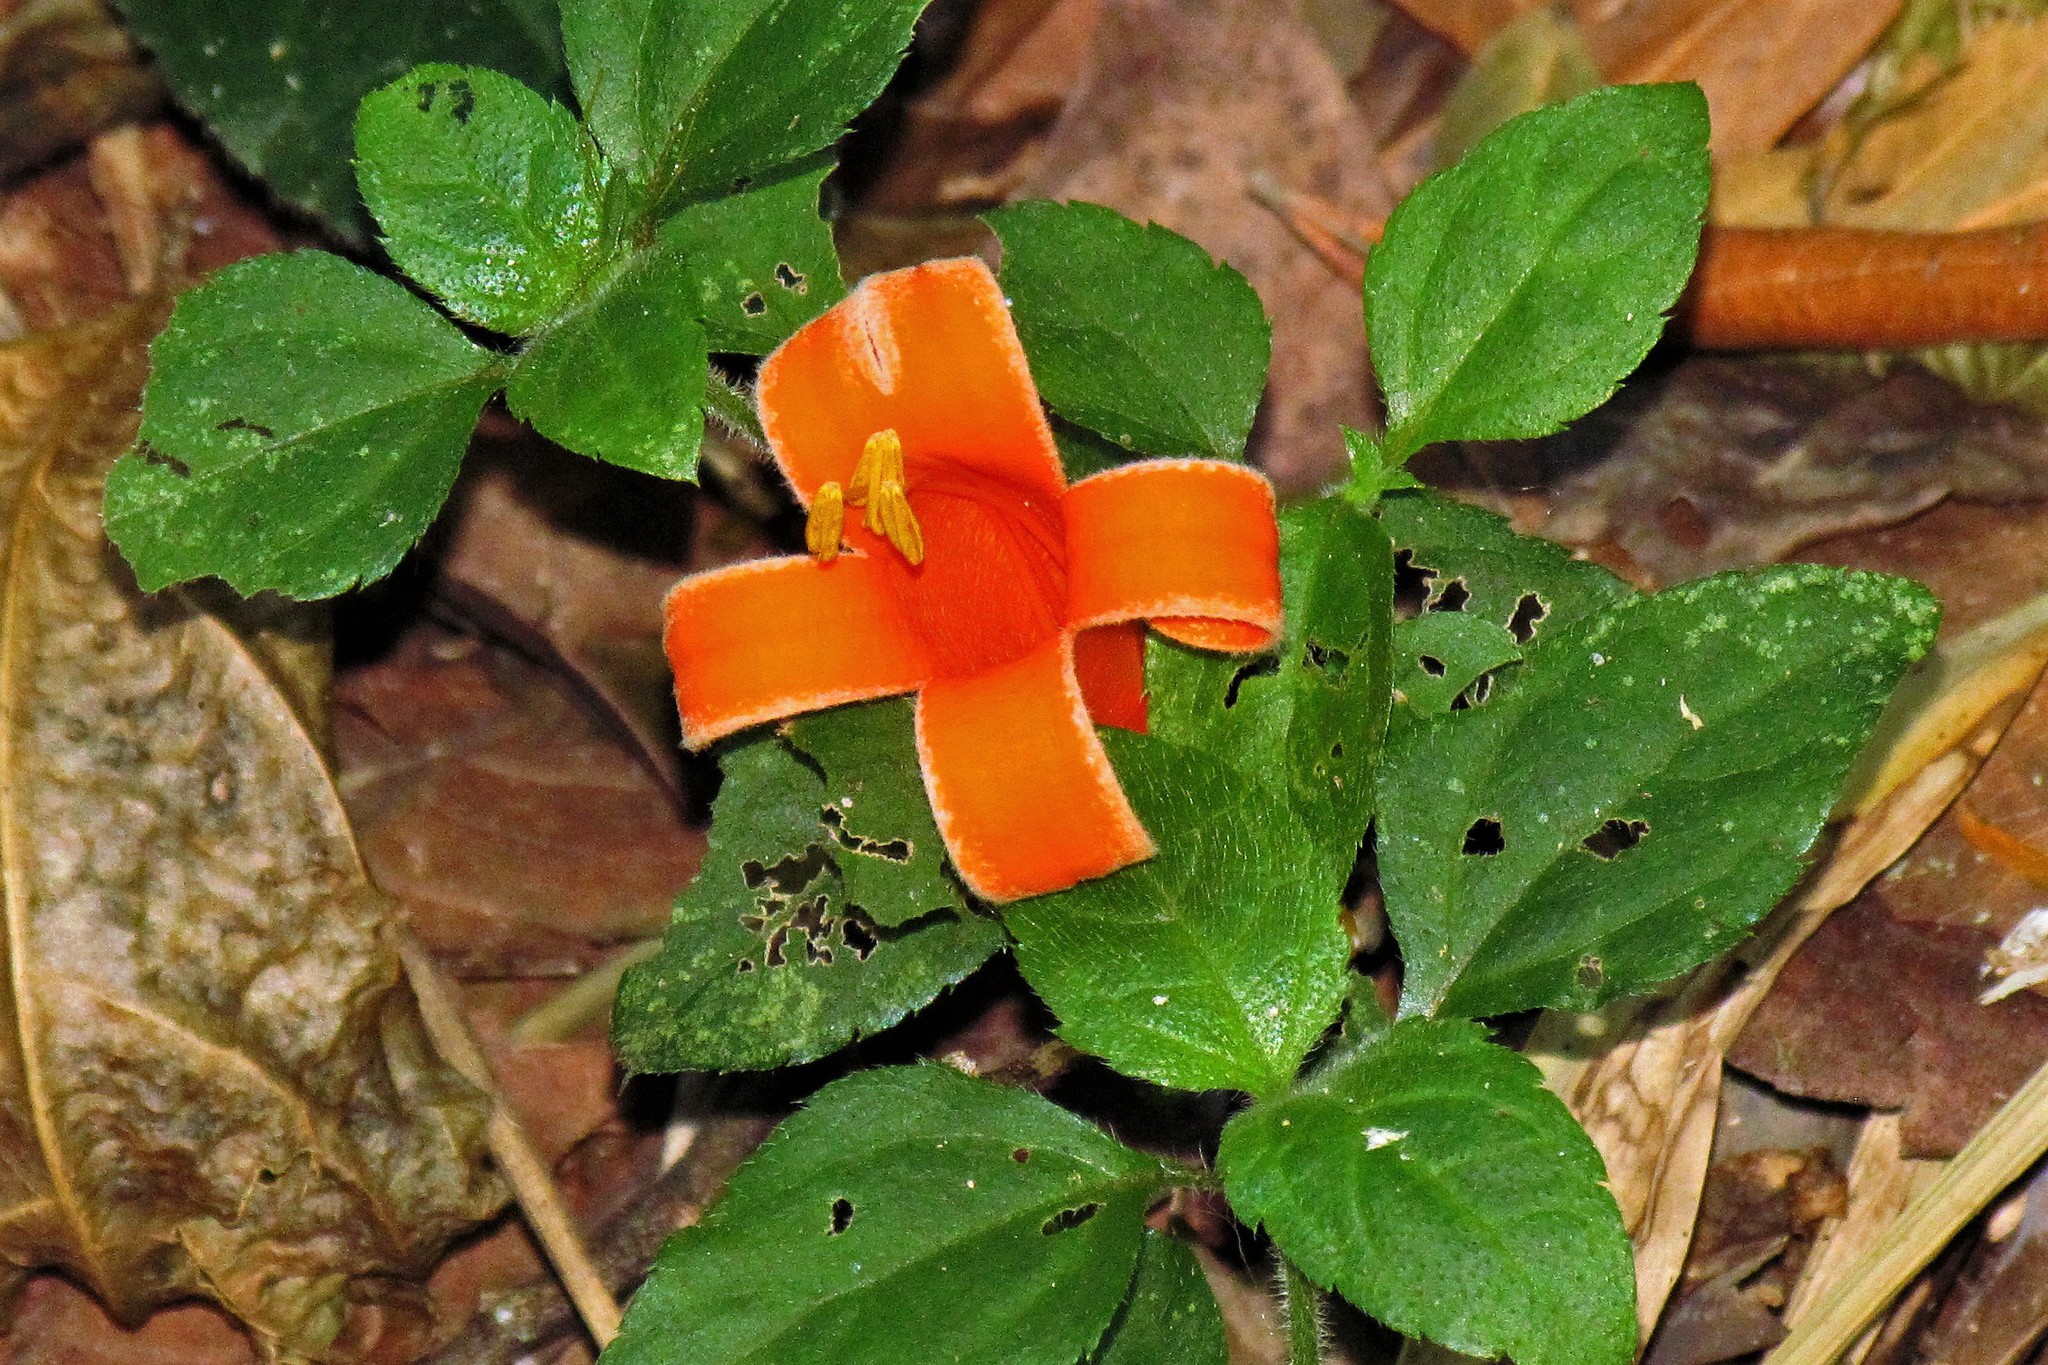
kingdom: Plantae
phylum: Tracheophyta
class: Magnoliopsida
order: Lamiales
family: Bignoniaceae
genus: Pyrostegia
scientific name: Pyrostegia venusta
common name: Flamevine
